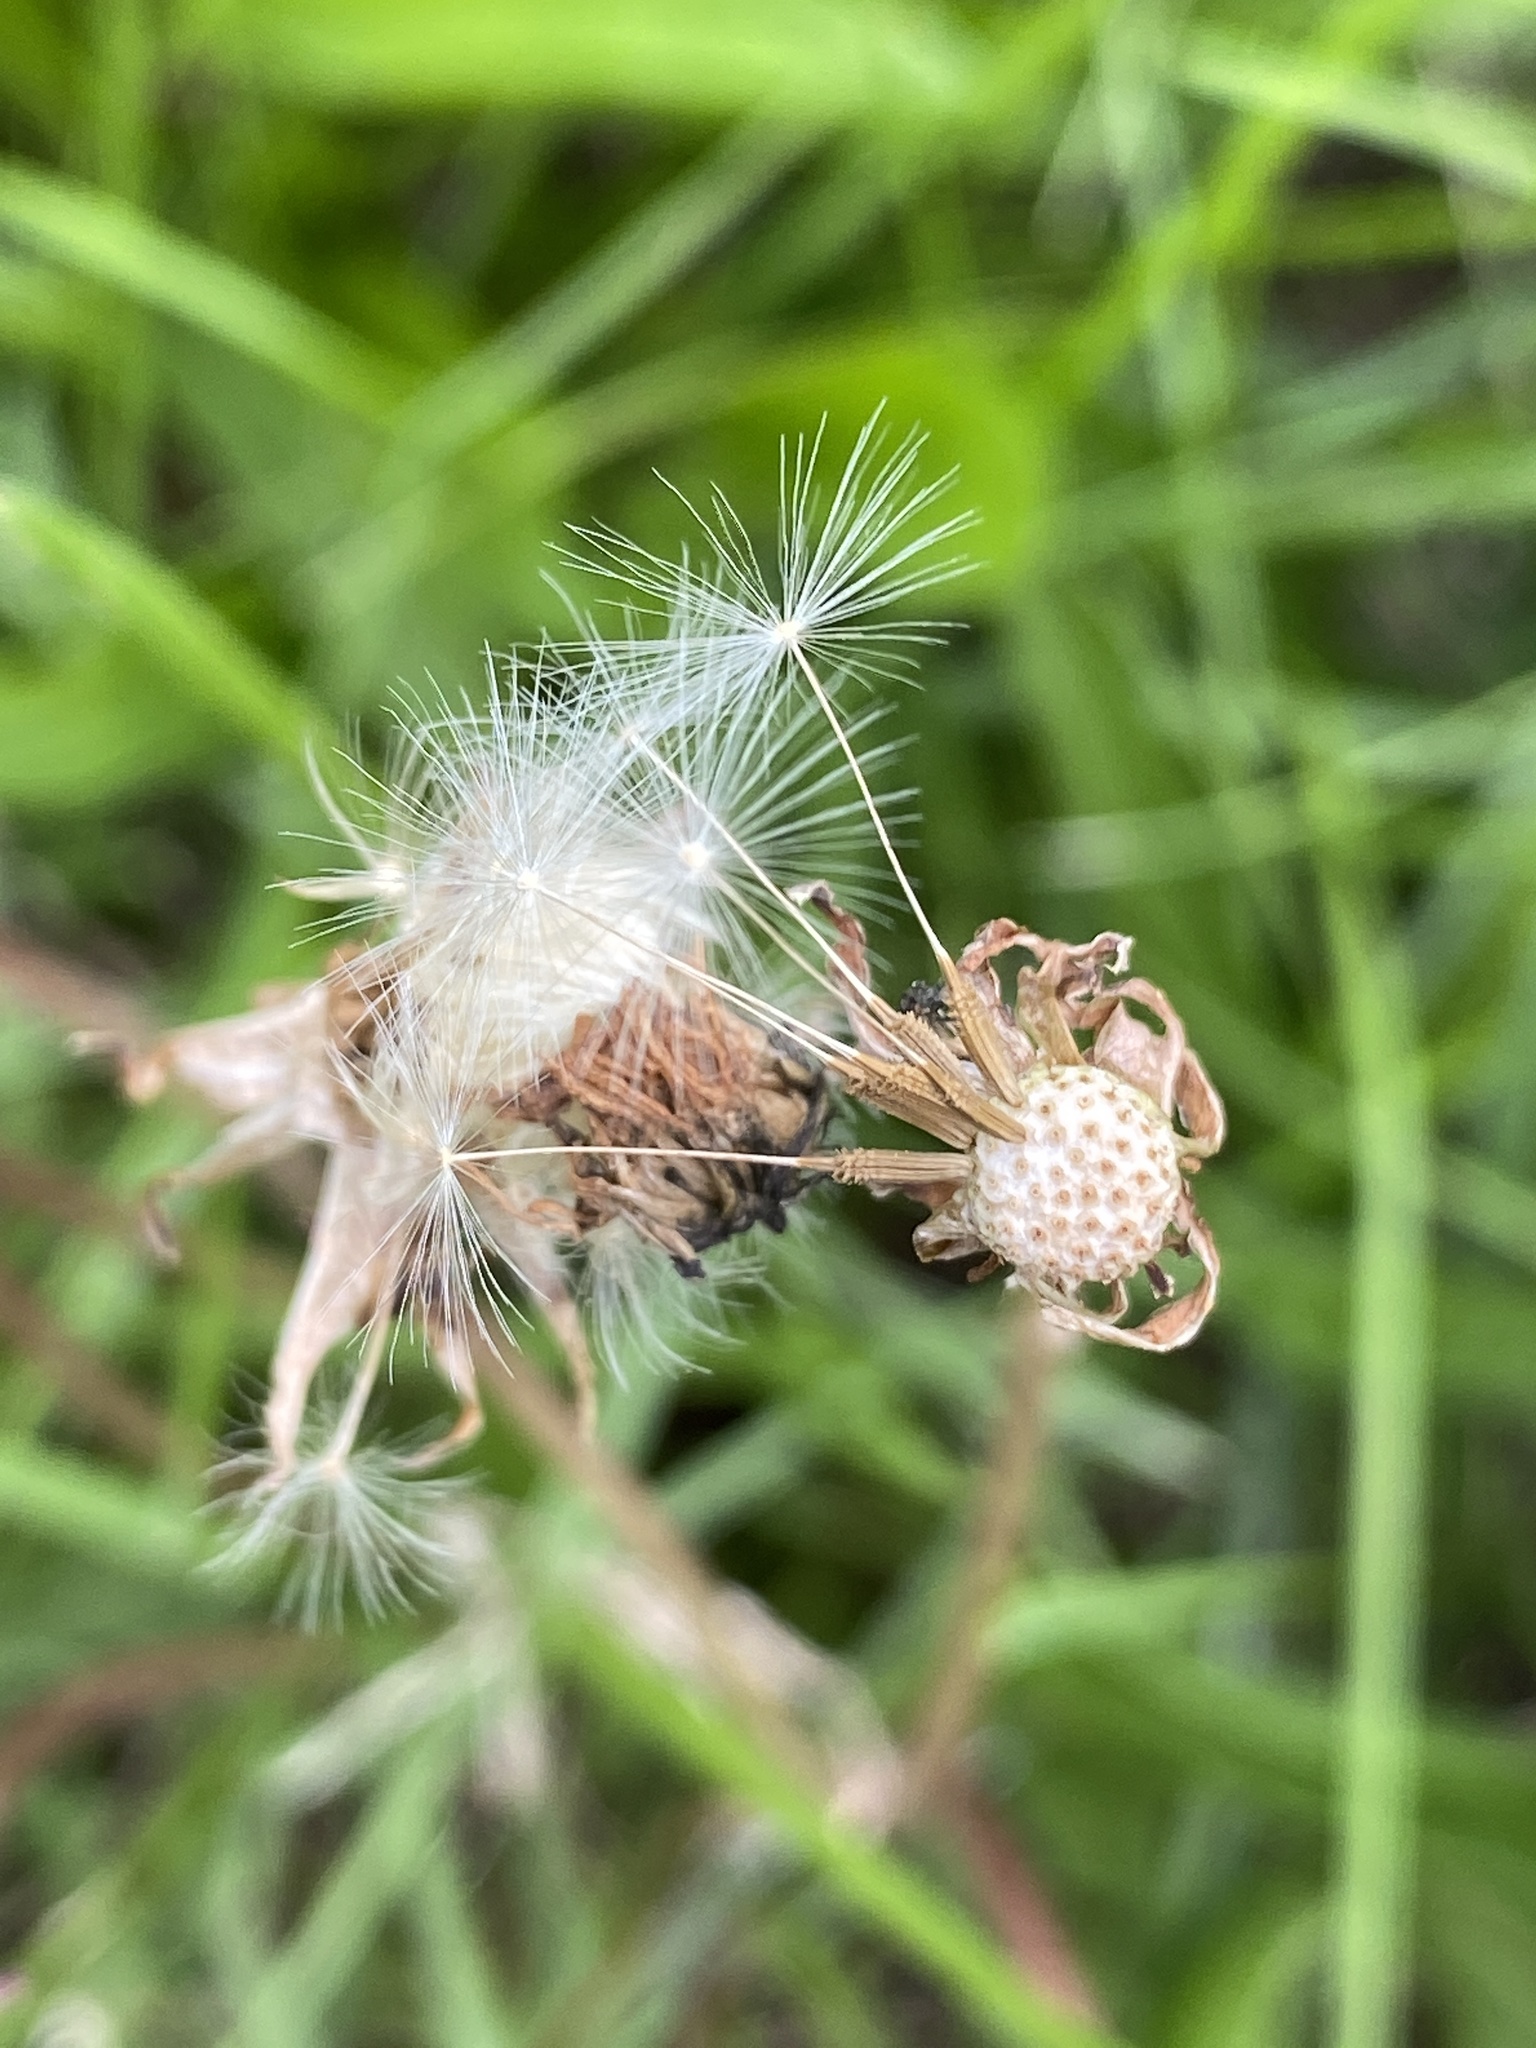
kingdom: Plantae
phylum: Tracheophyta
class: Magnoliopsida
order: Asterales
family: Asteraceae
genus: Taraxacum
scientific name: Taraxacum officinale
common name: Common dandelion
